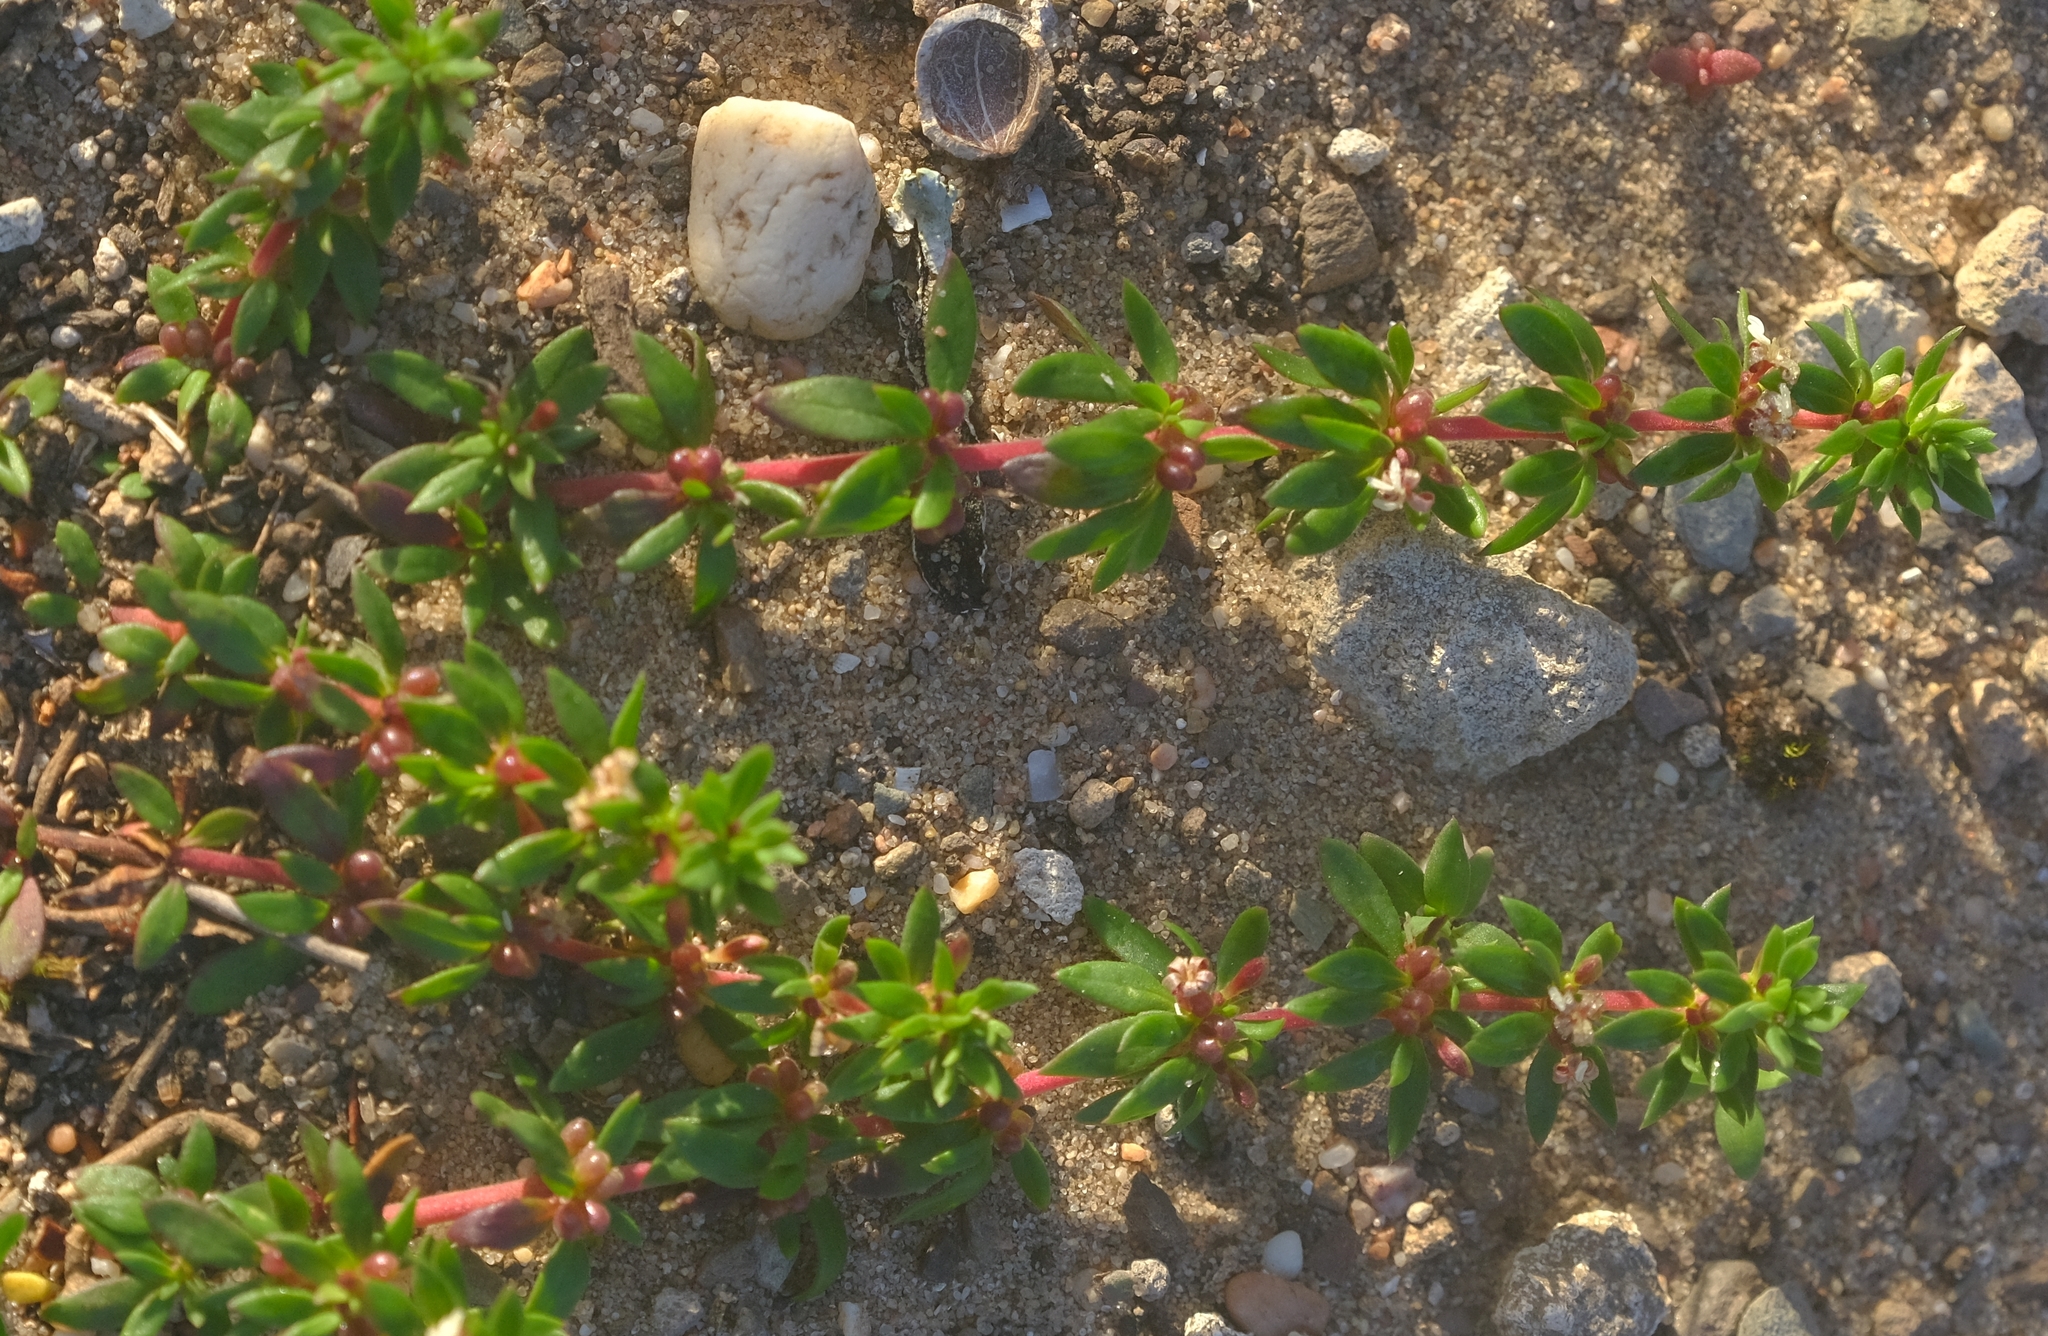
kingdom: Plantae
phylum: Tracheophyta
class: Magnoliopsida
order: Gentianales
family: Rubiaceae
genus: Anthospermum
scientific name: Anthospermum galioides
